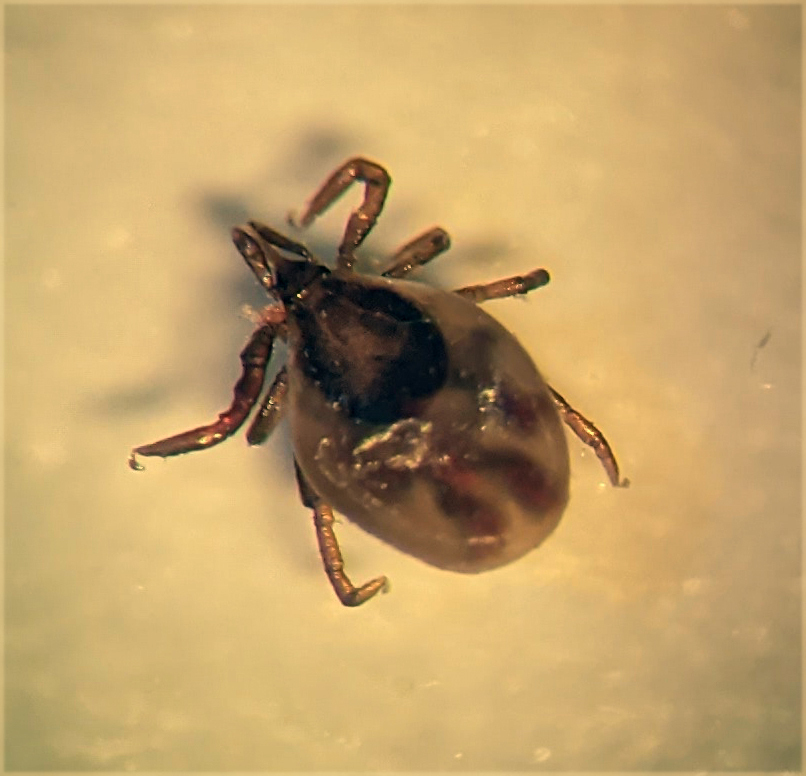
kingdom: Animalia
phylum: Arthropoda
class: Arachnida
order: Ixodida
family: Ixodidae
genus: Ixodes
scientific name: Ixodes scapularis
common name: Black legged tick
